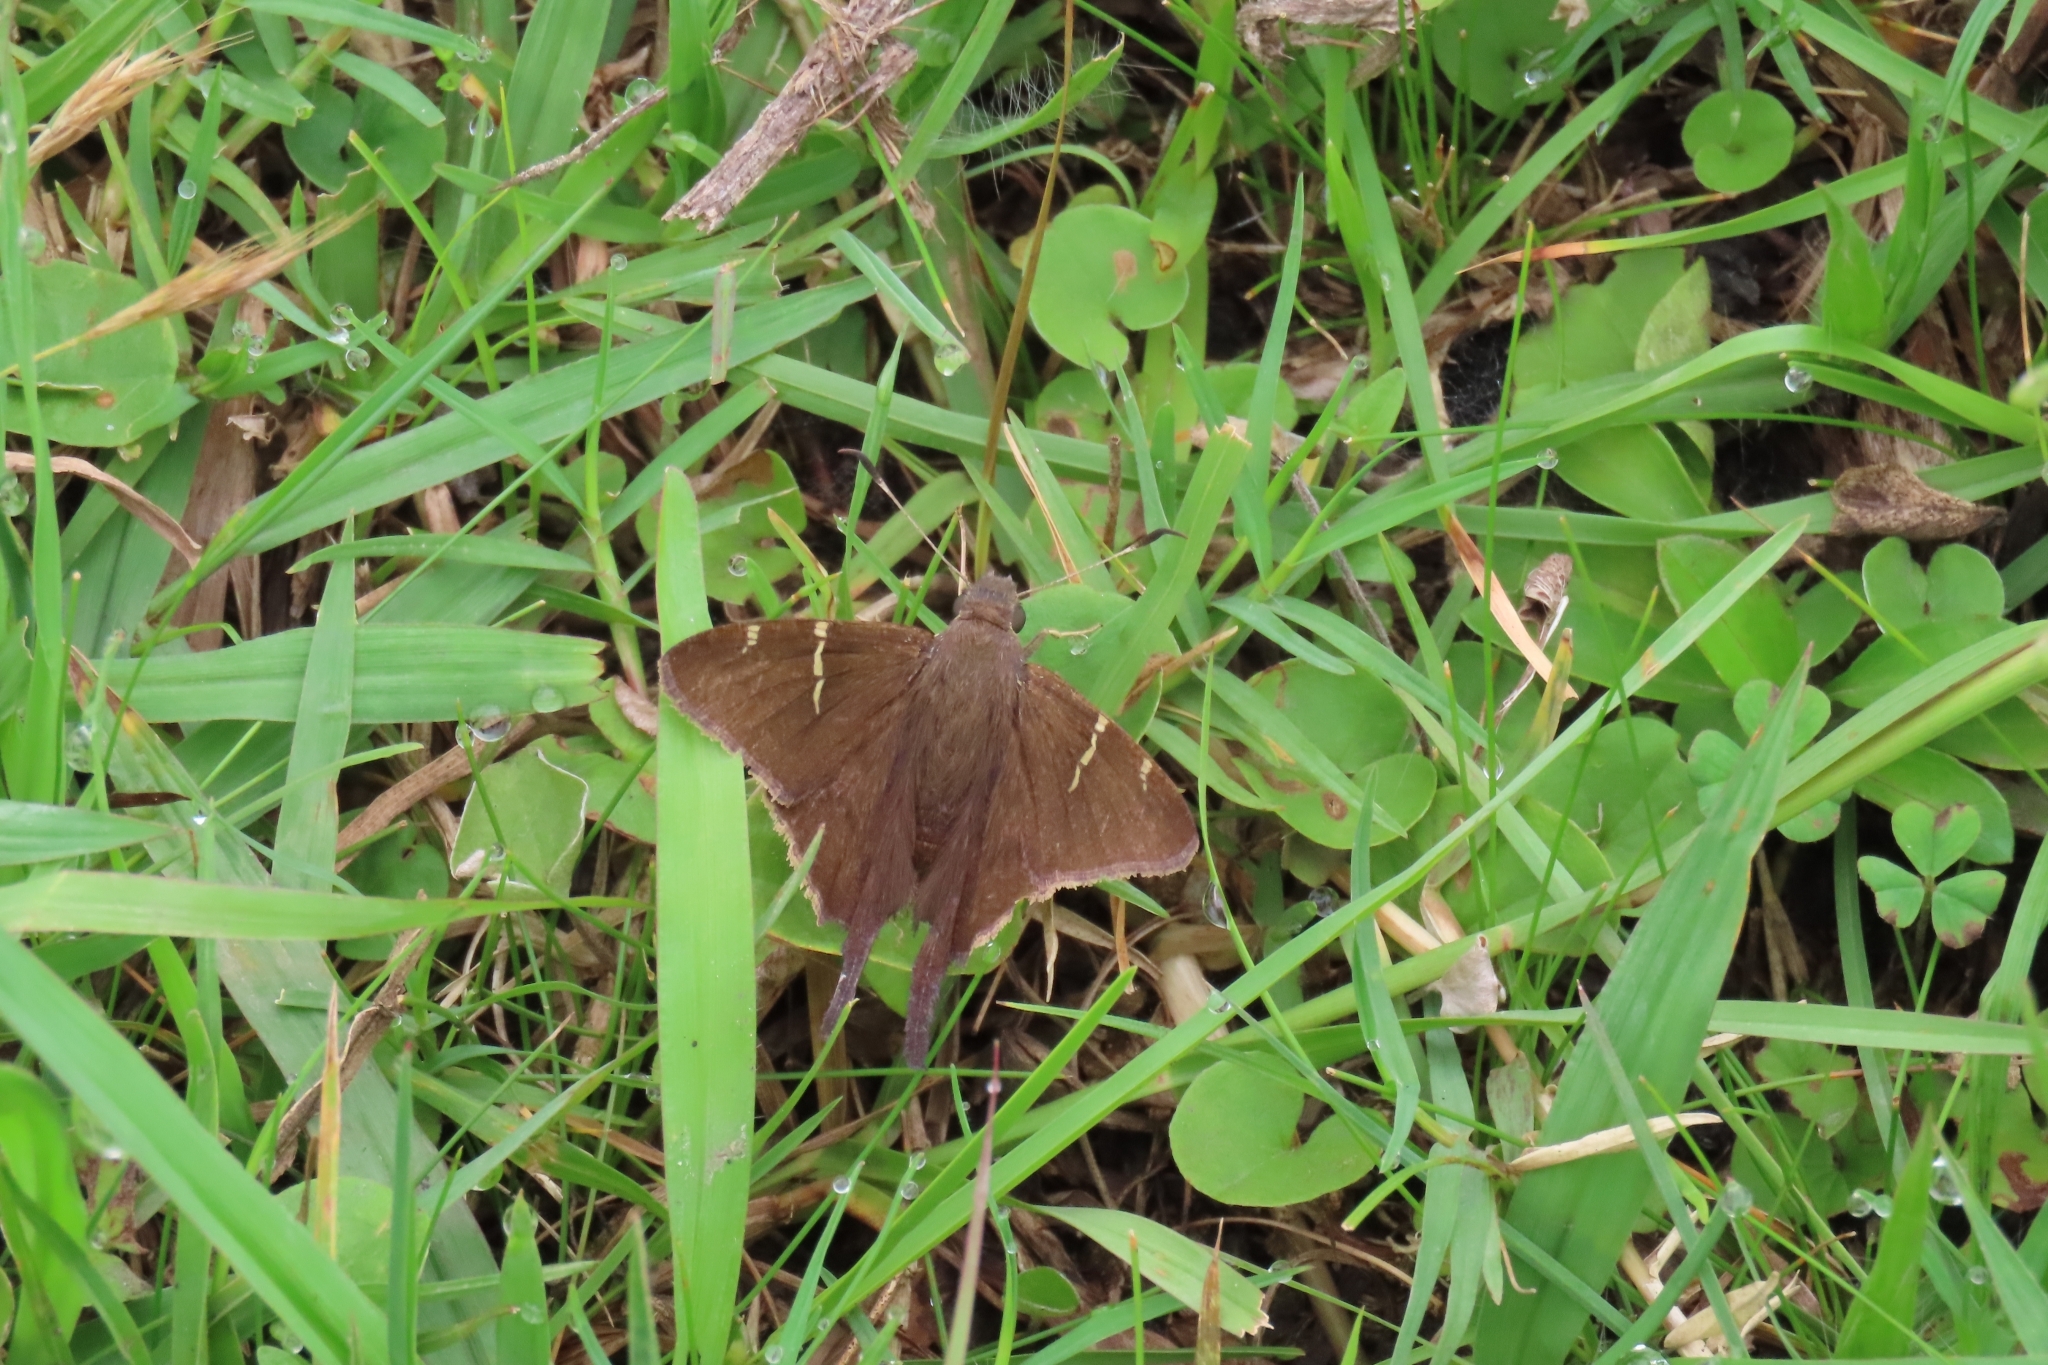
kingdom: Animalia
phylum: Arthropoda
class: Insecta
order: Lepidoptera
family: Hesperiidae
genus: Urbanus
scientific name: Urbanus teleus
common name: Teleus longtail
